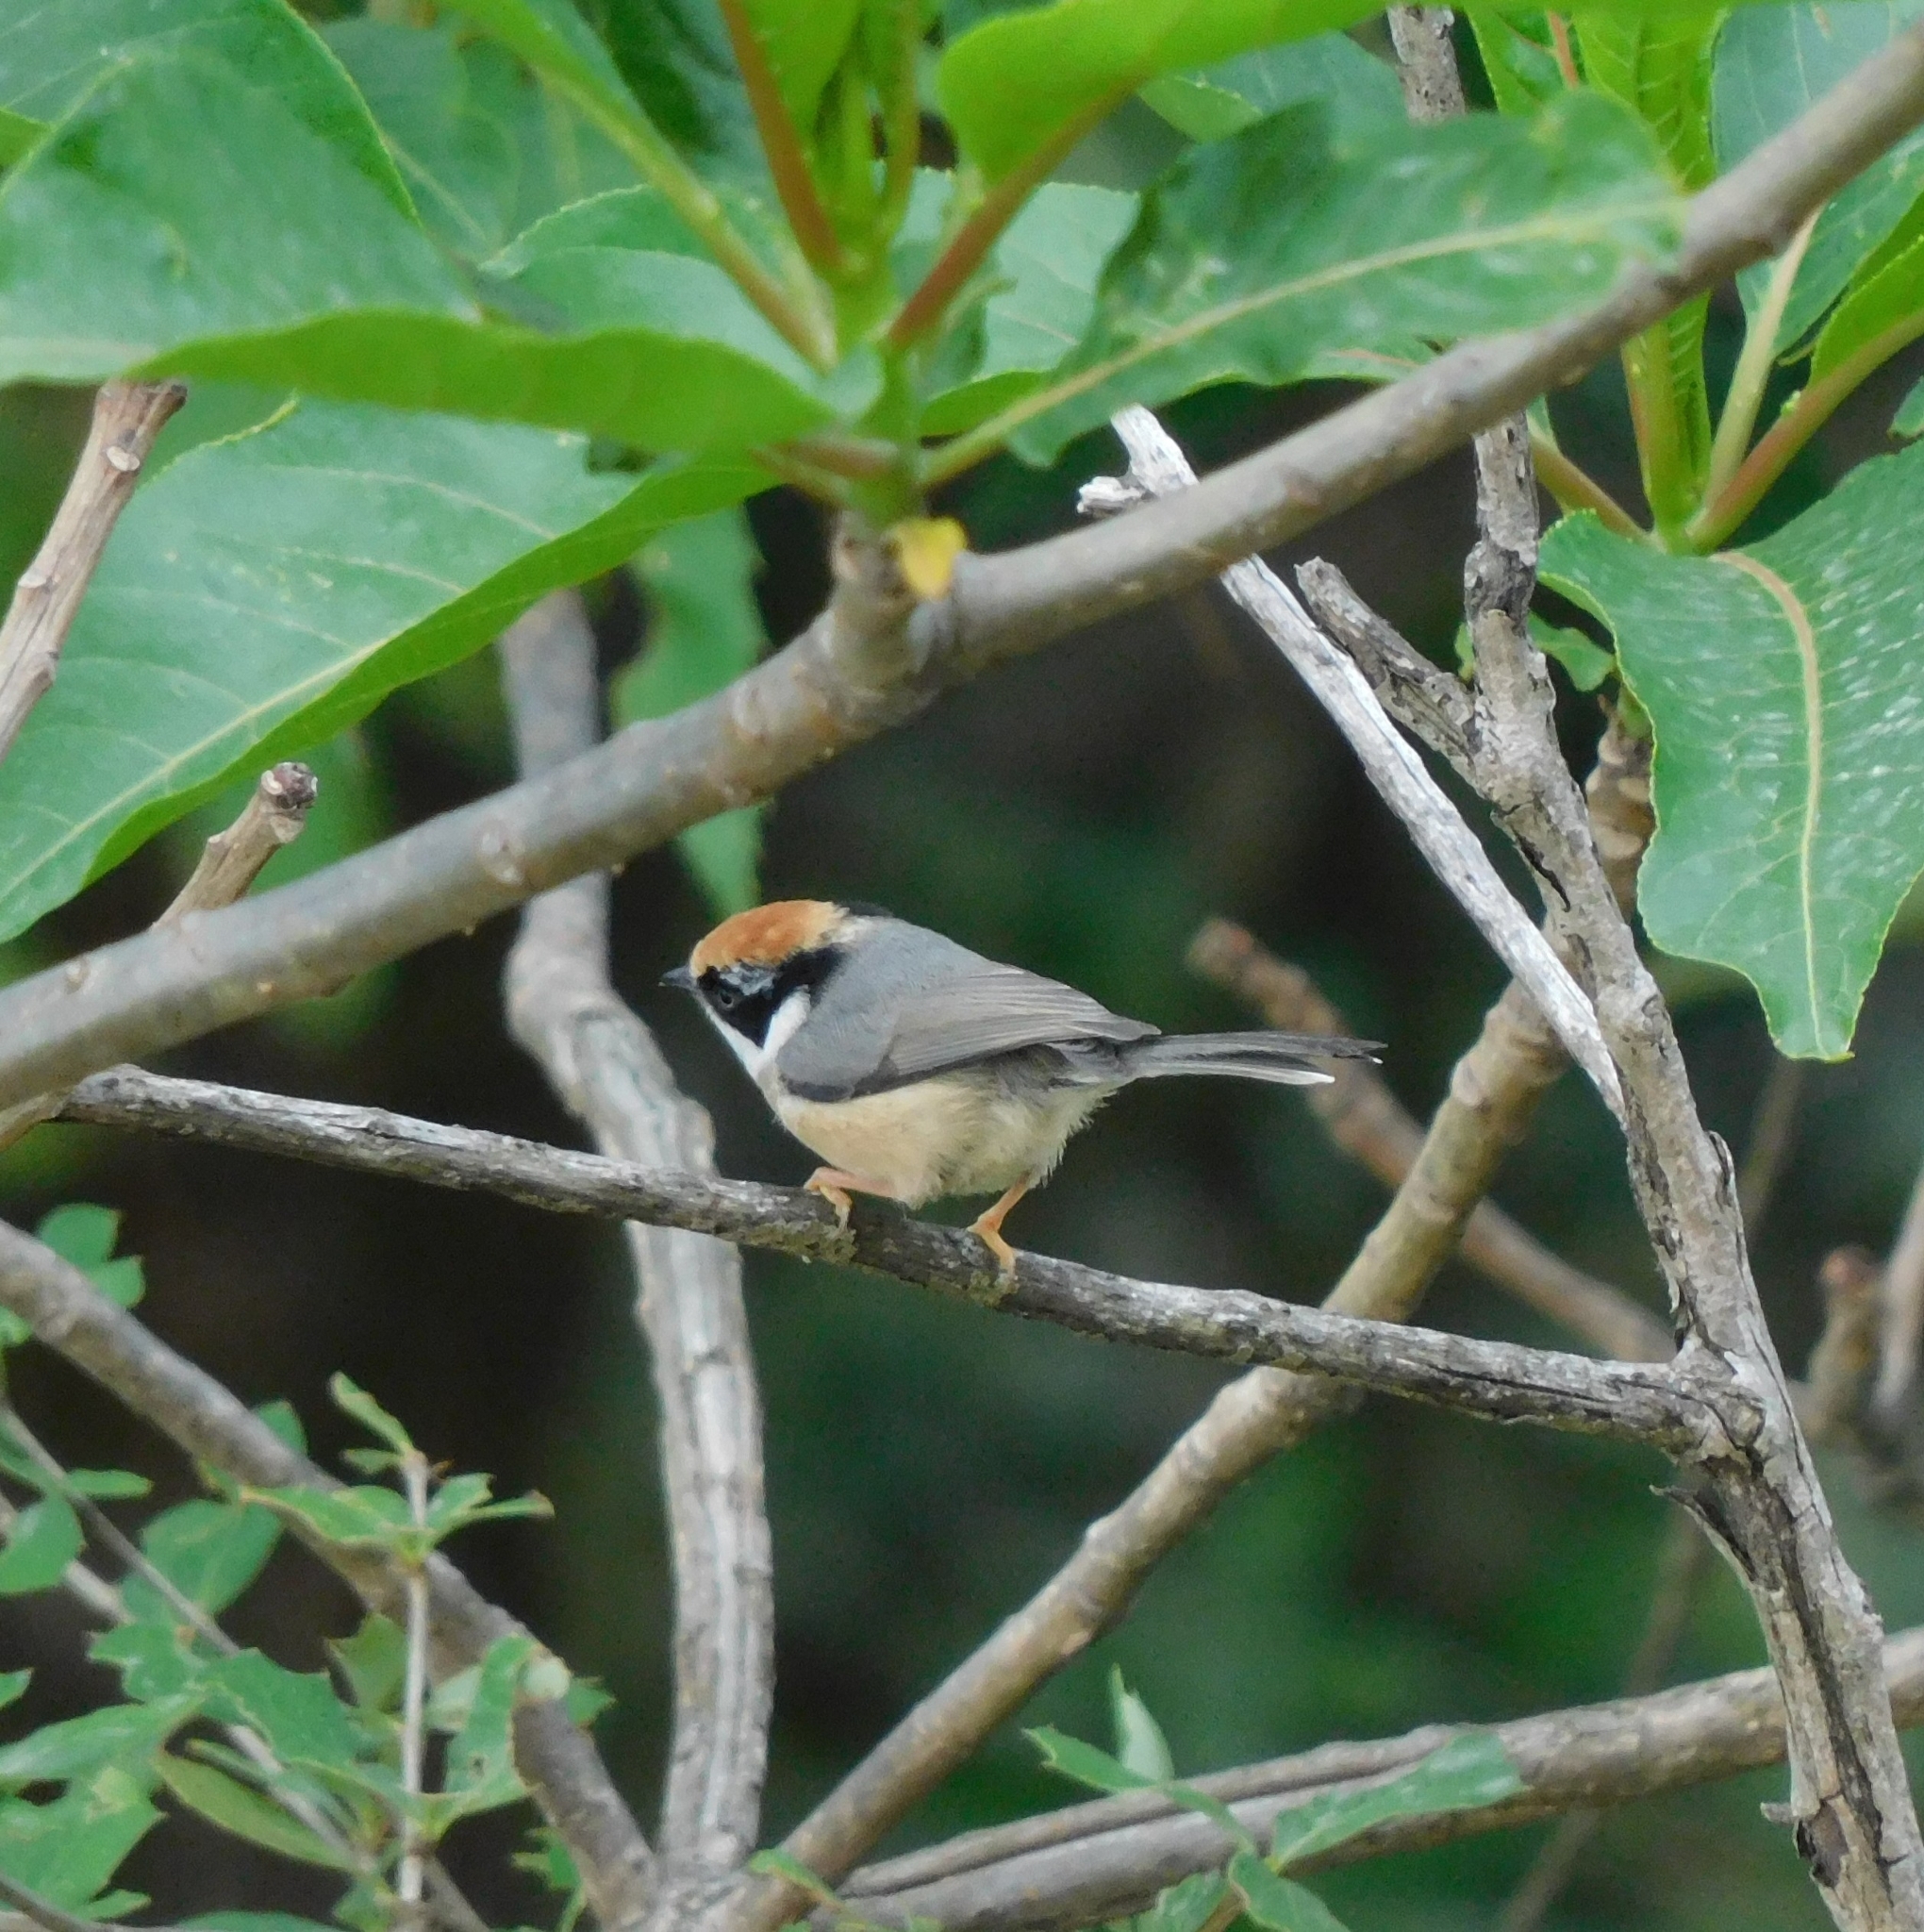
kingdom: Animalia
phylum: Chordata
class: Aves
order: Passeriformes
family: Aegithalidae
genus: Aegithalos
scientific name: Aegithalos concinnus
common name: Black-throated bushtit
